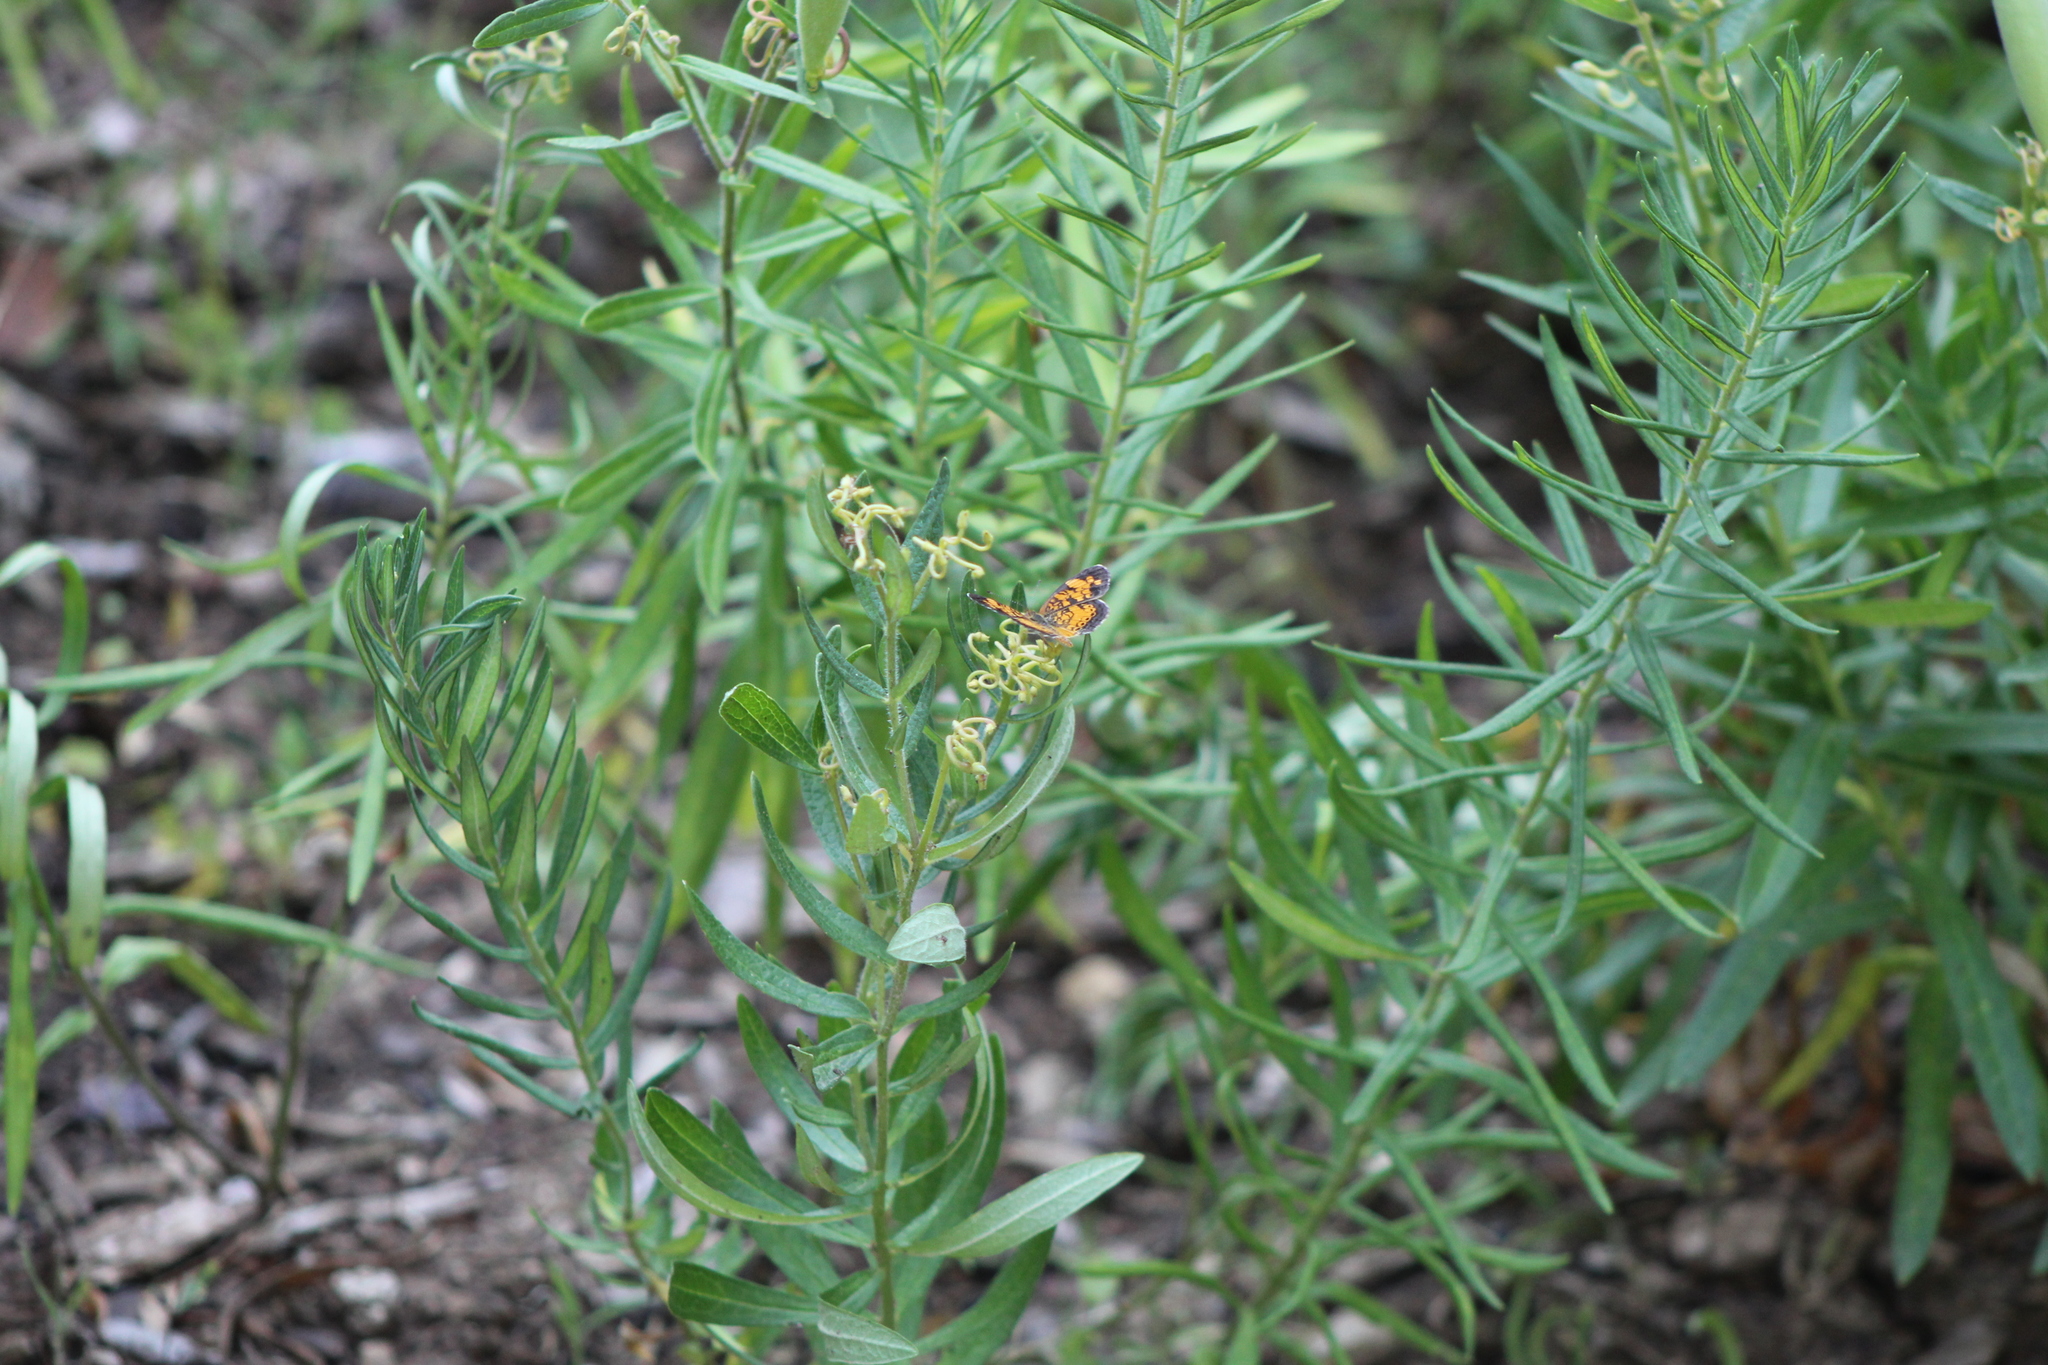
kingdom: Animalia
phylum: Arthropoda
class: Insecta
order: Lepidoptera
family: Nymphalidae
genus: Phyciodes
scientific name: Phyciodes tharos
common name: Pearl crescent
